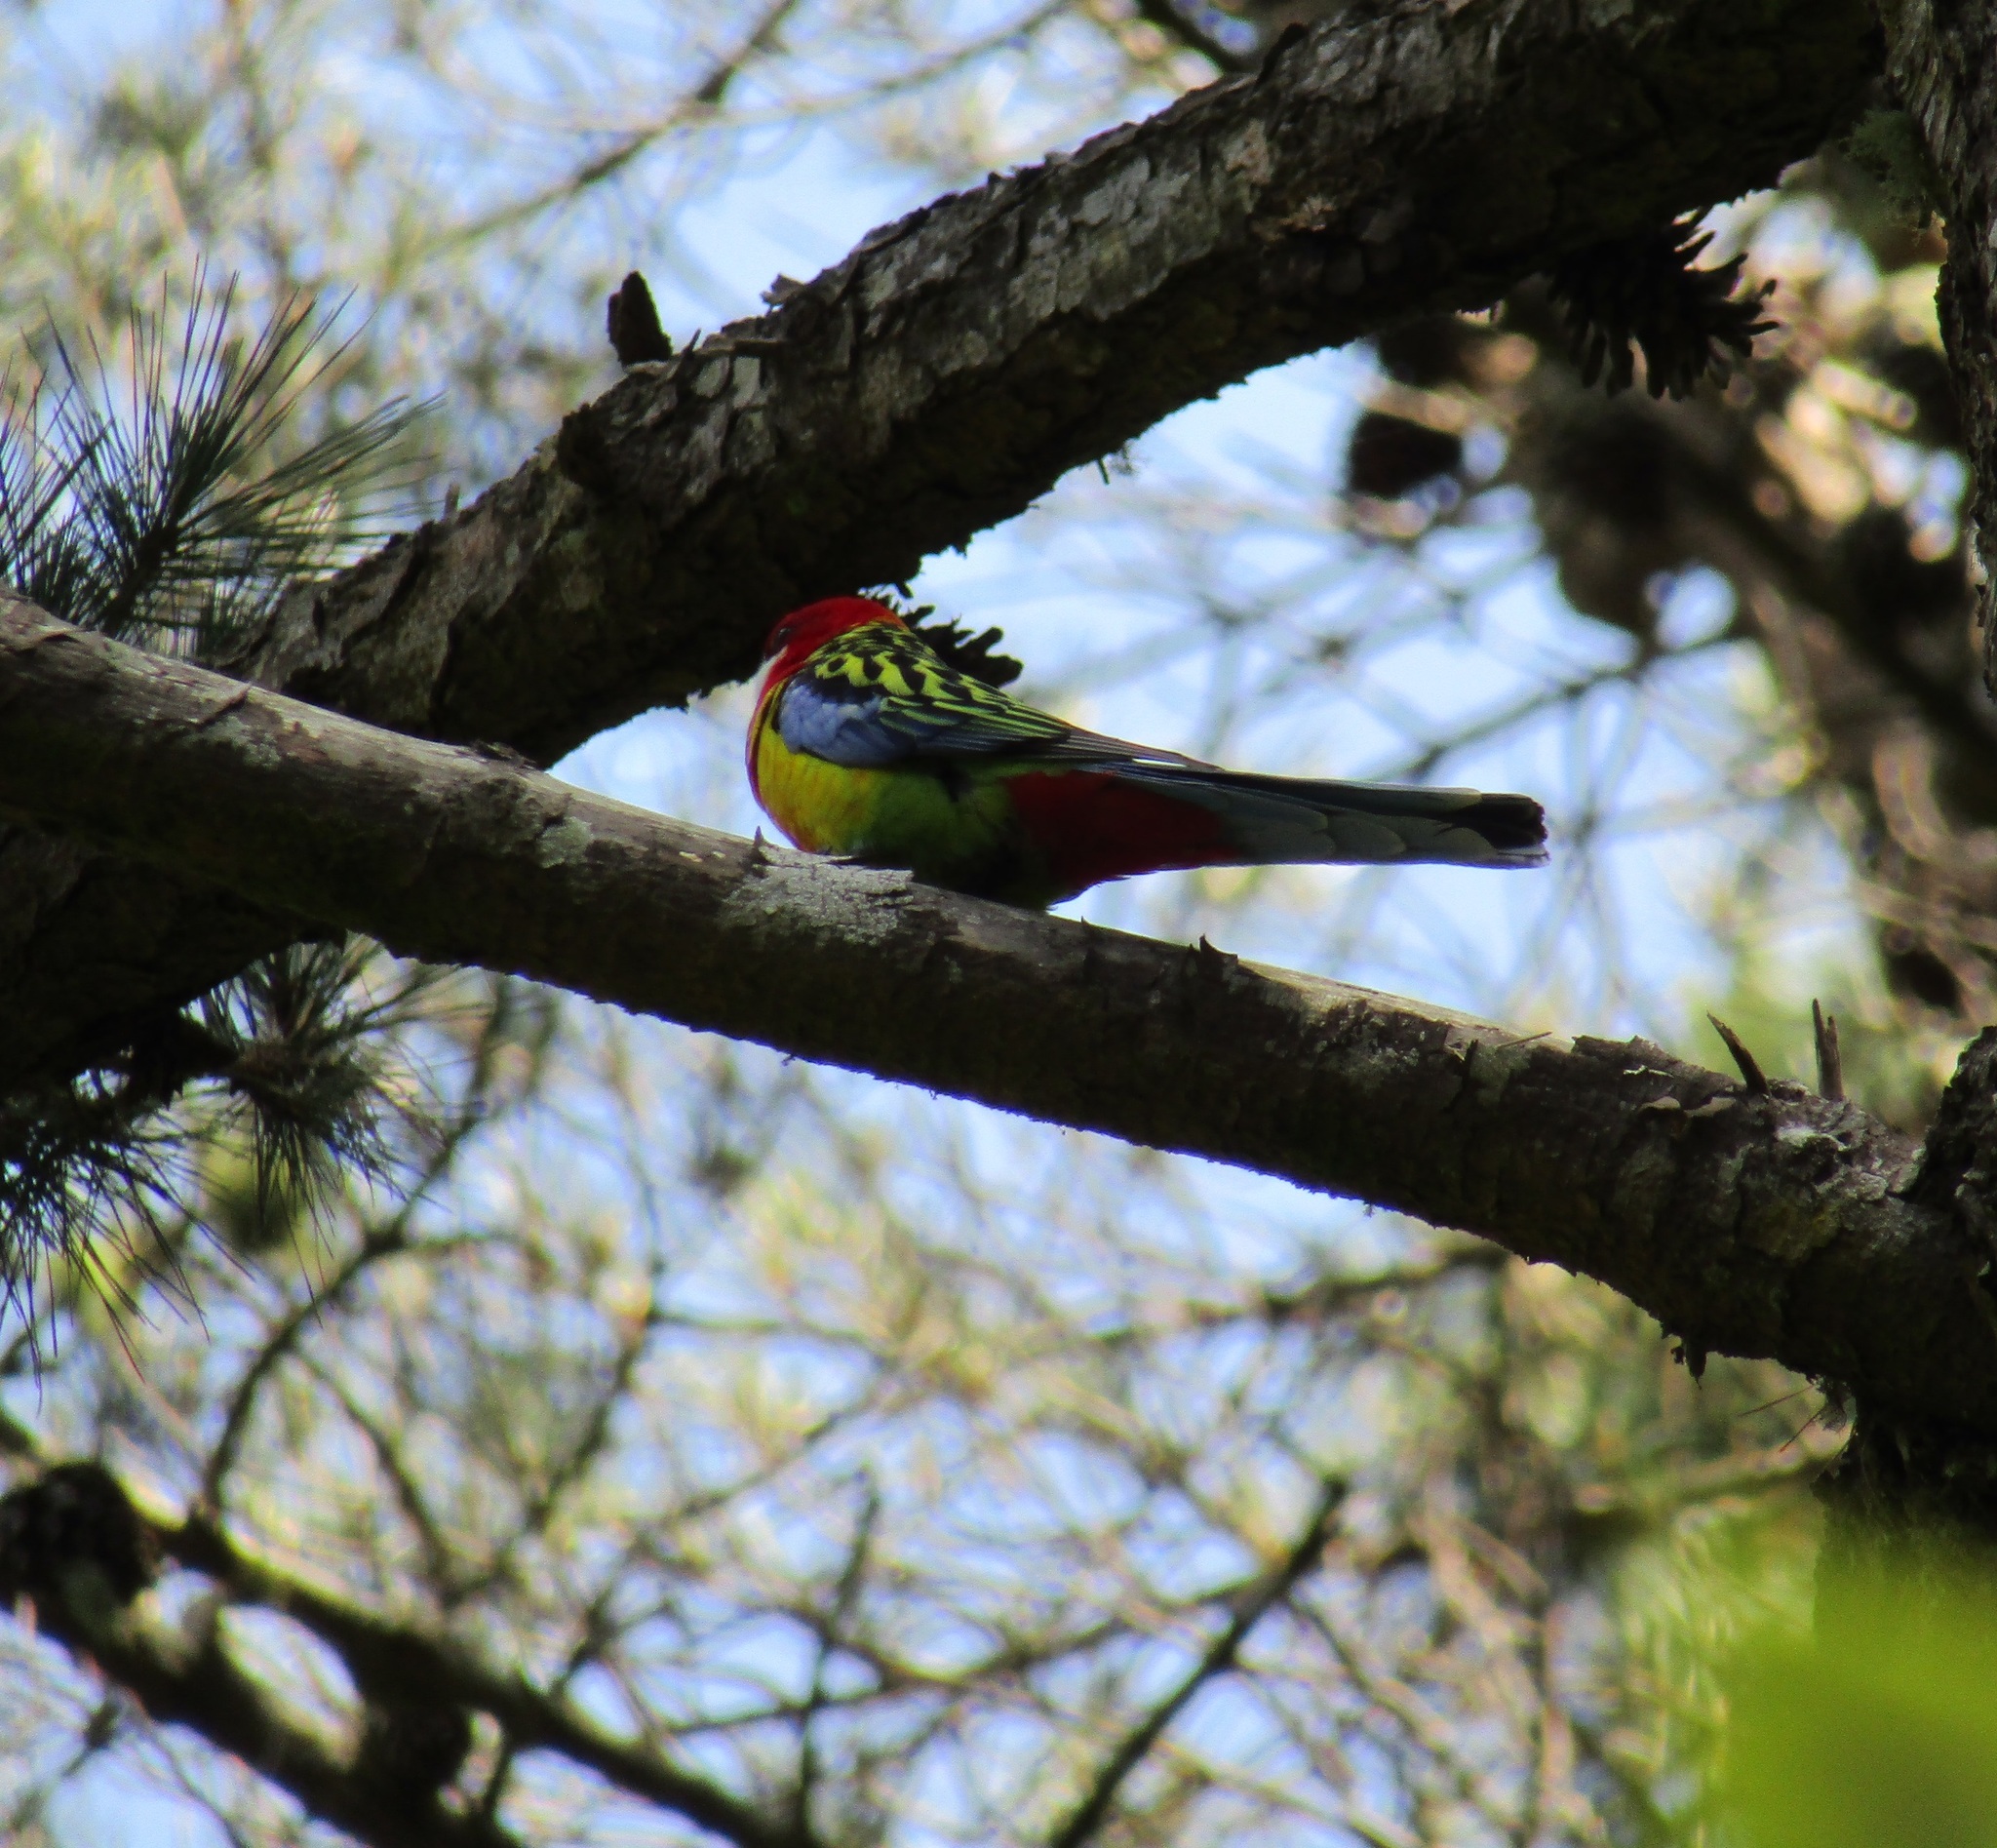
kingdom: Animalia
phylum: Chordata
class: Aves
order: Psittaciformes
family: Psittacidae
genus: Platycercus
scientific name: Platycercus eximius
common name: Eastern rosella
